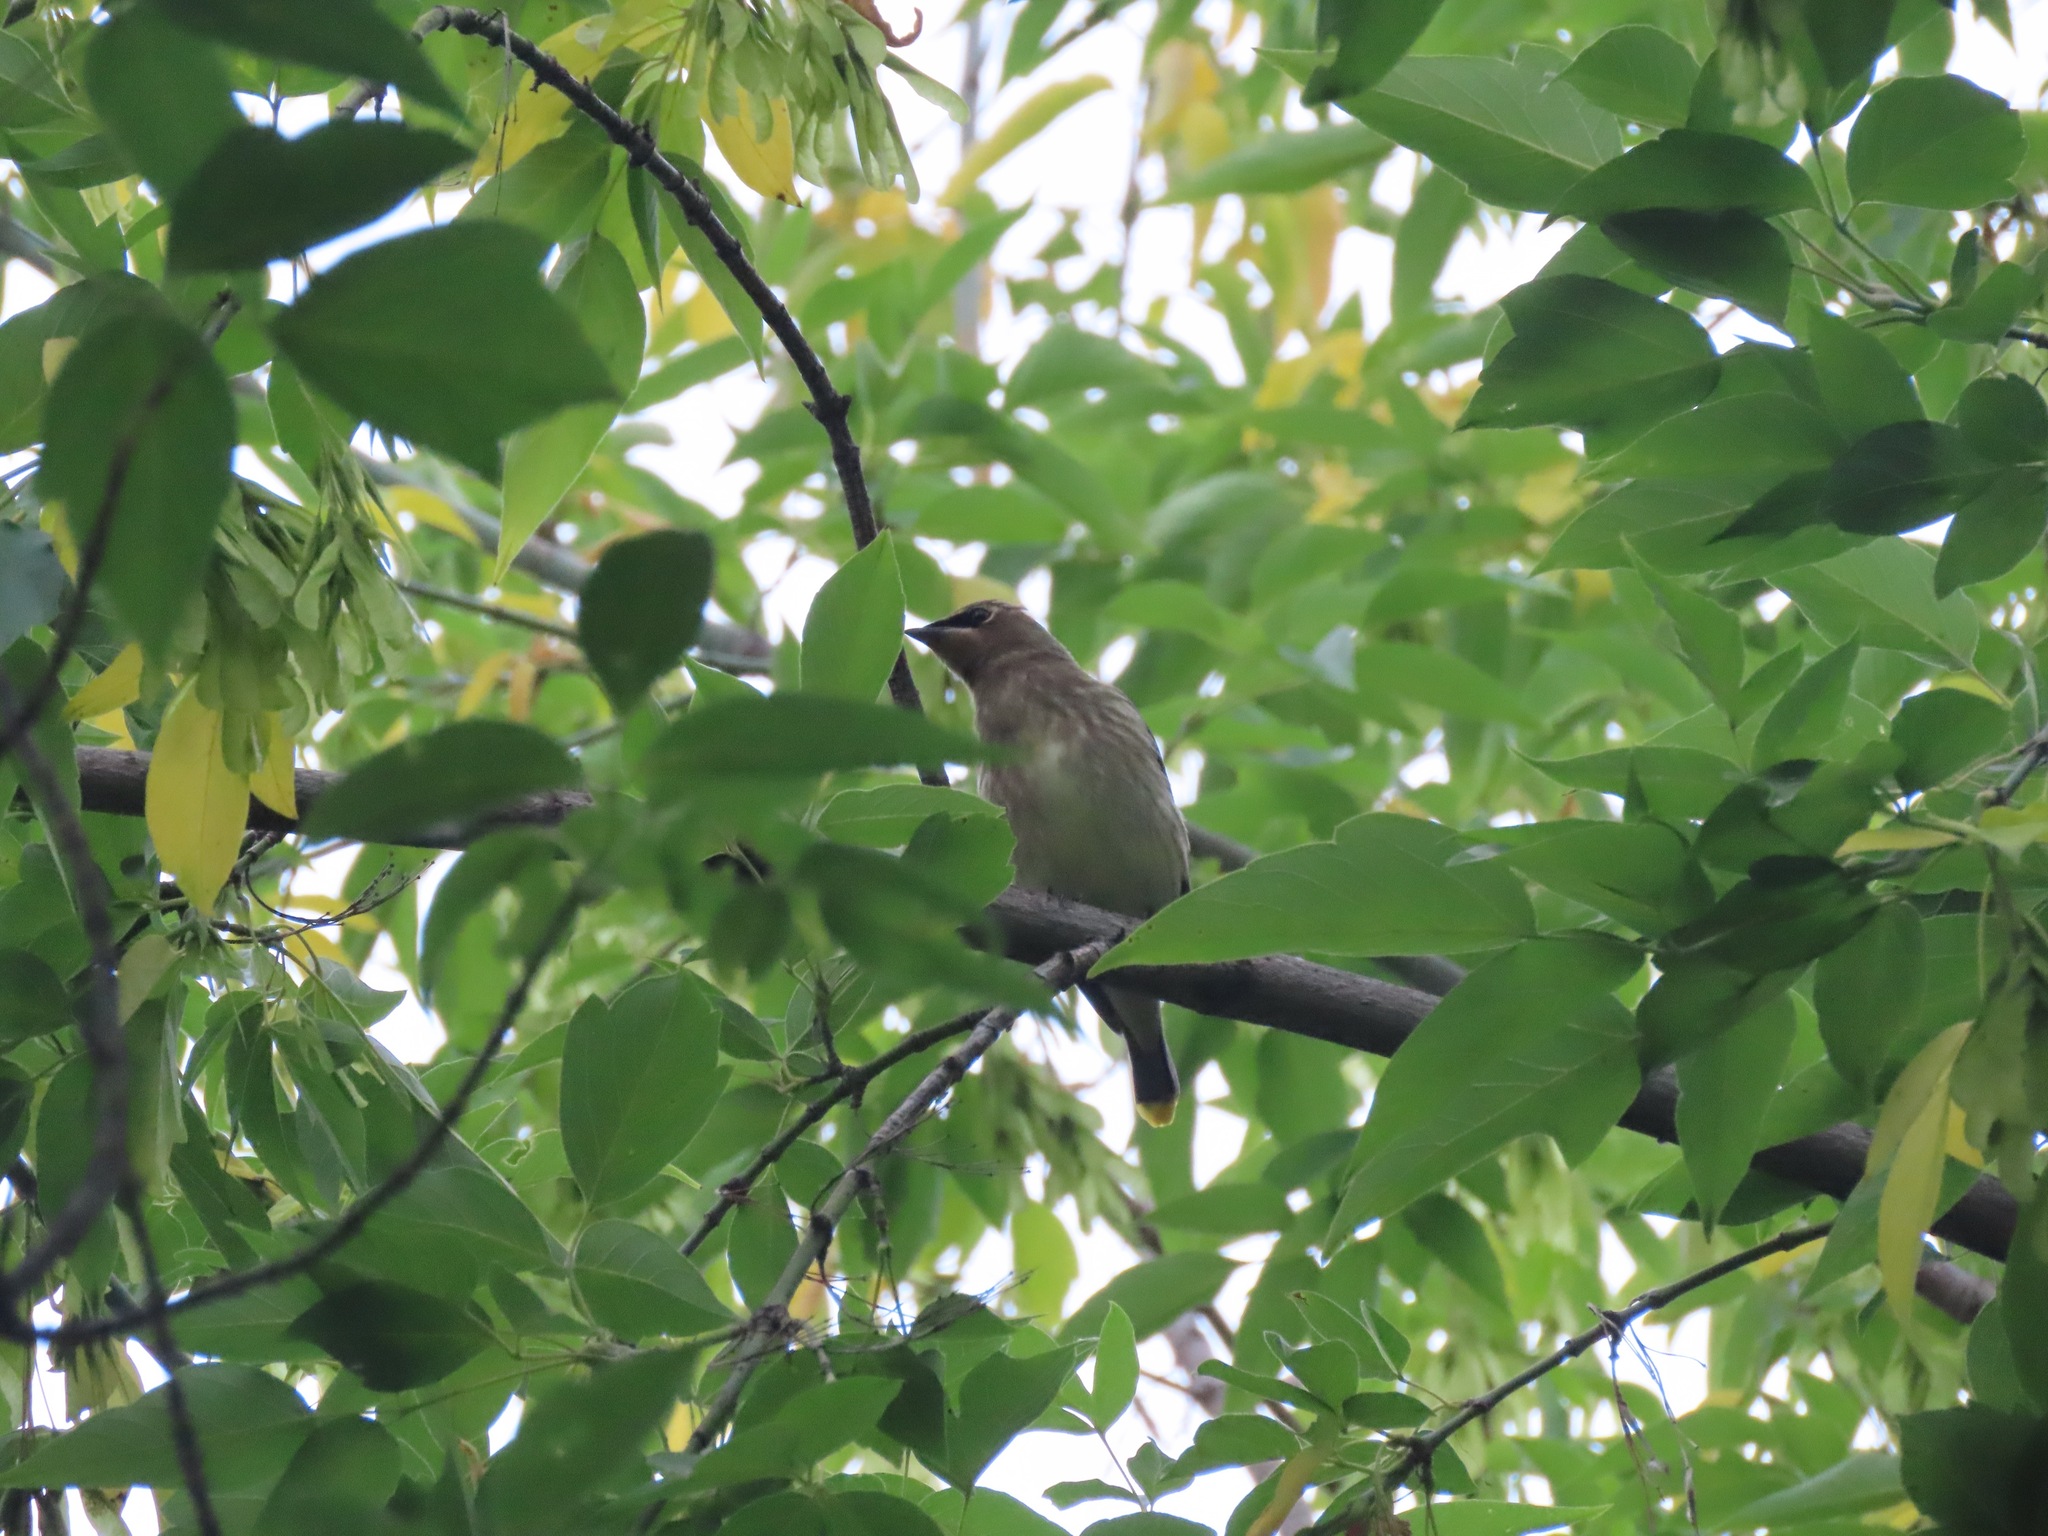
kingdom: Animalia
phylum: Chordata
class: Aves
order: Passeriformes
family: Bombycillidae
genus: Bombycilla
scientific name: Bombycilla cedrorum
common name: Cedar waxwing
